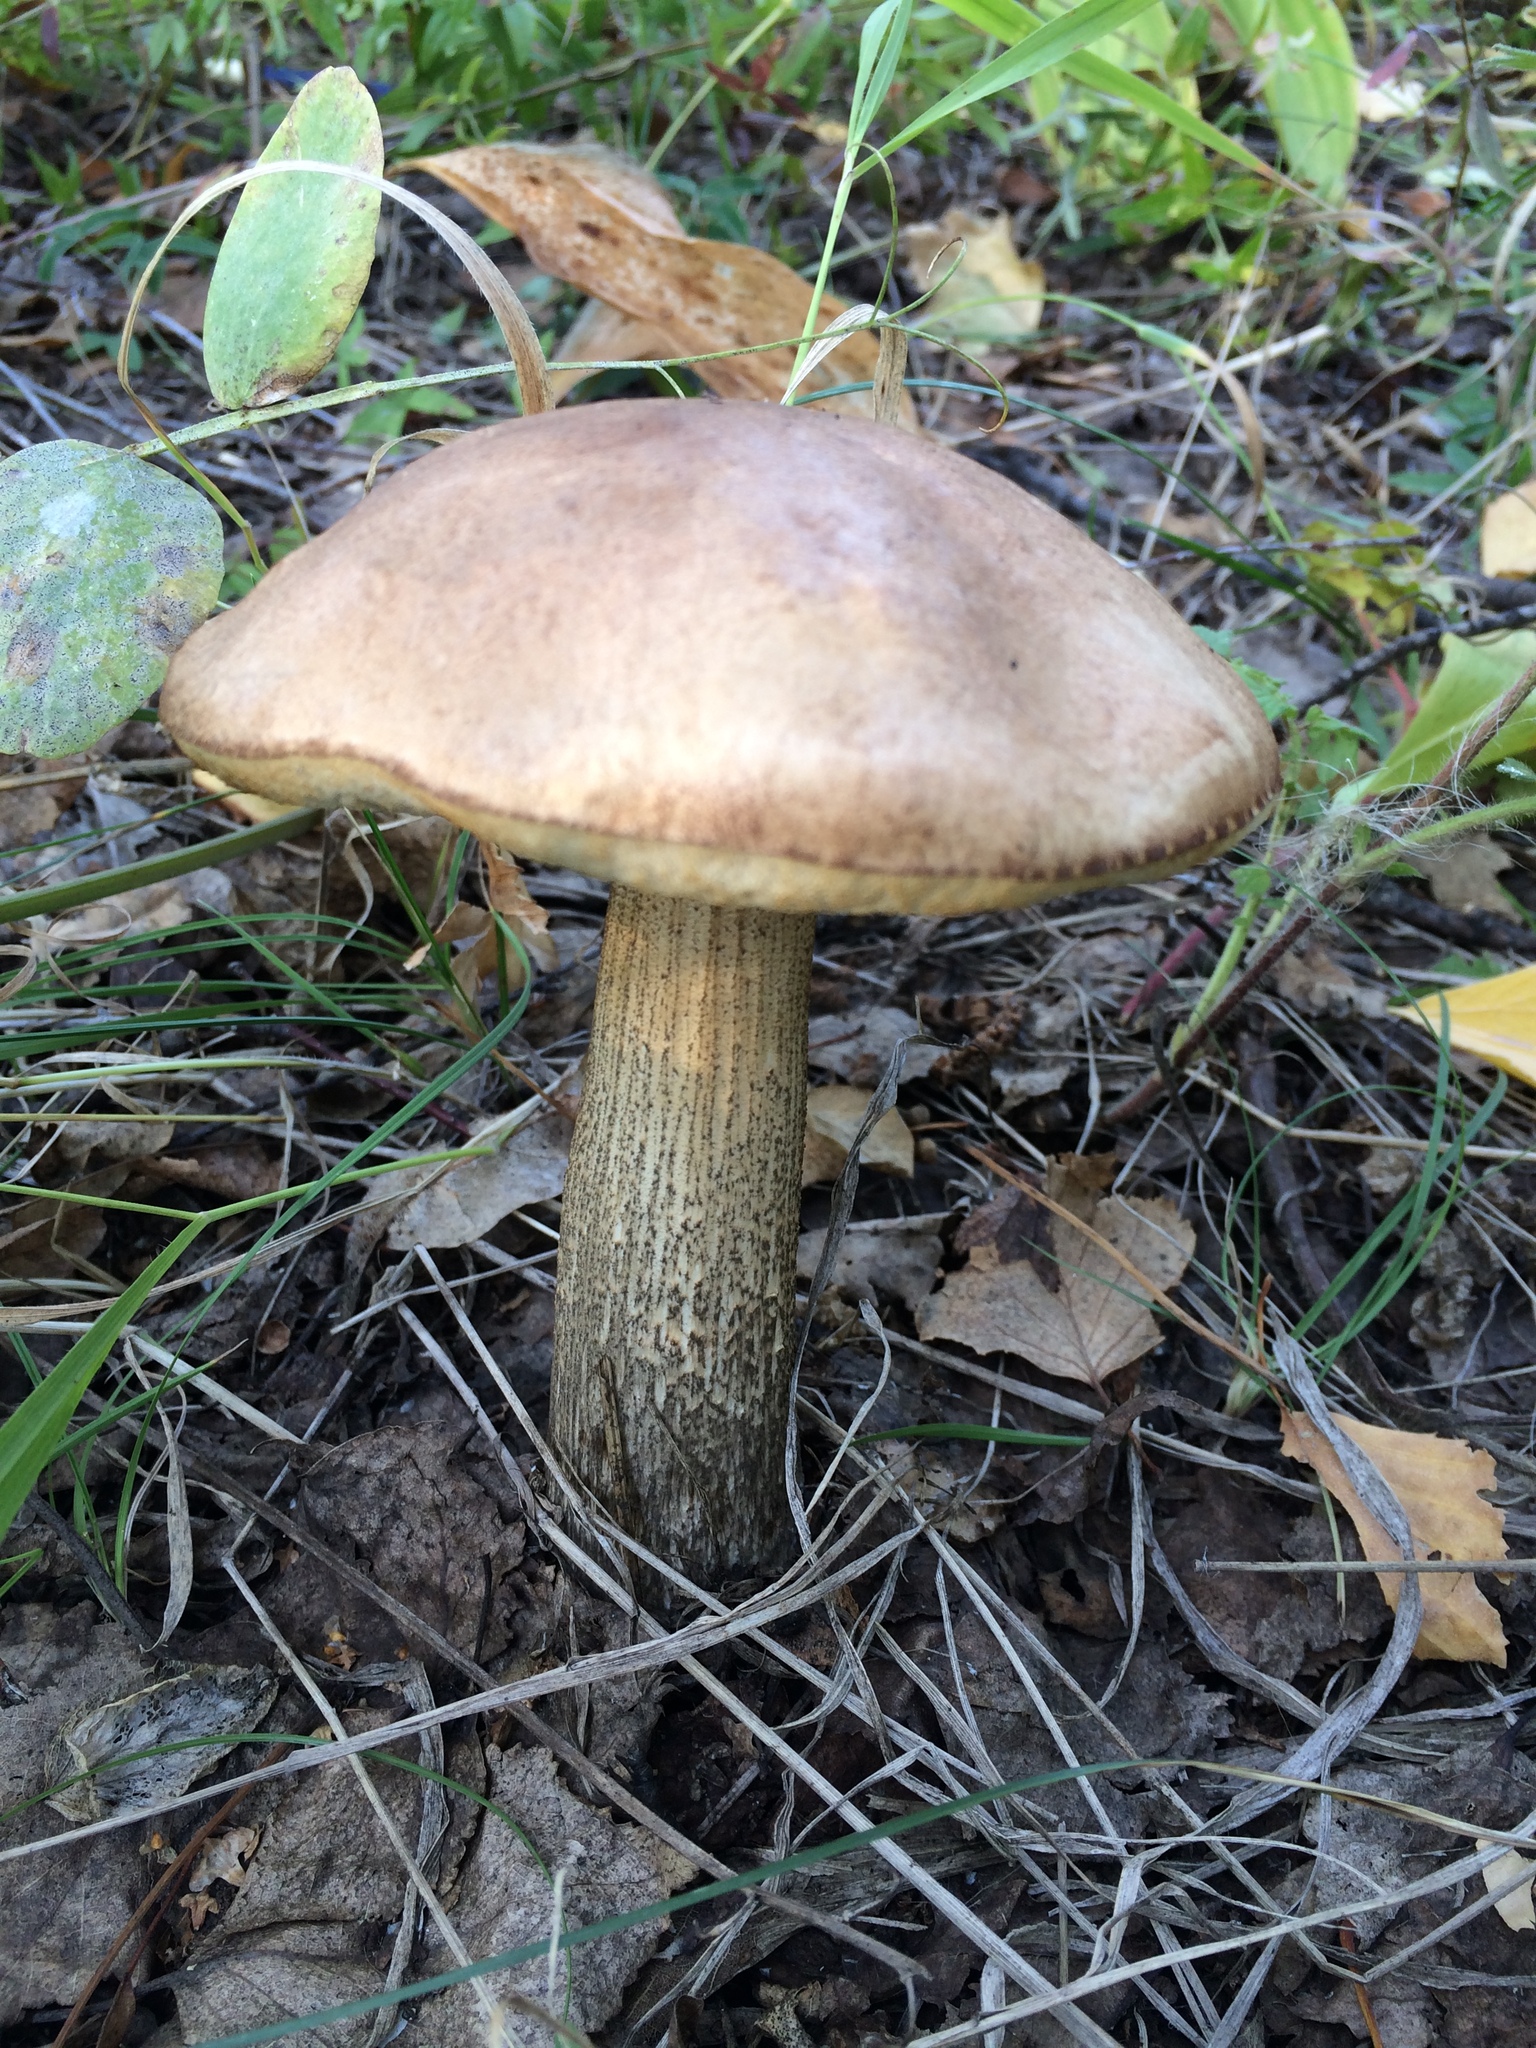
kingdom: Fungi
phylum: Basidiomycota
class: Agaricomycetes
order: Boletales
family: Boletaceae
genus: Leccinum
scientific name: Leccinum scabrum
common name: Blushing bolete
